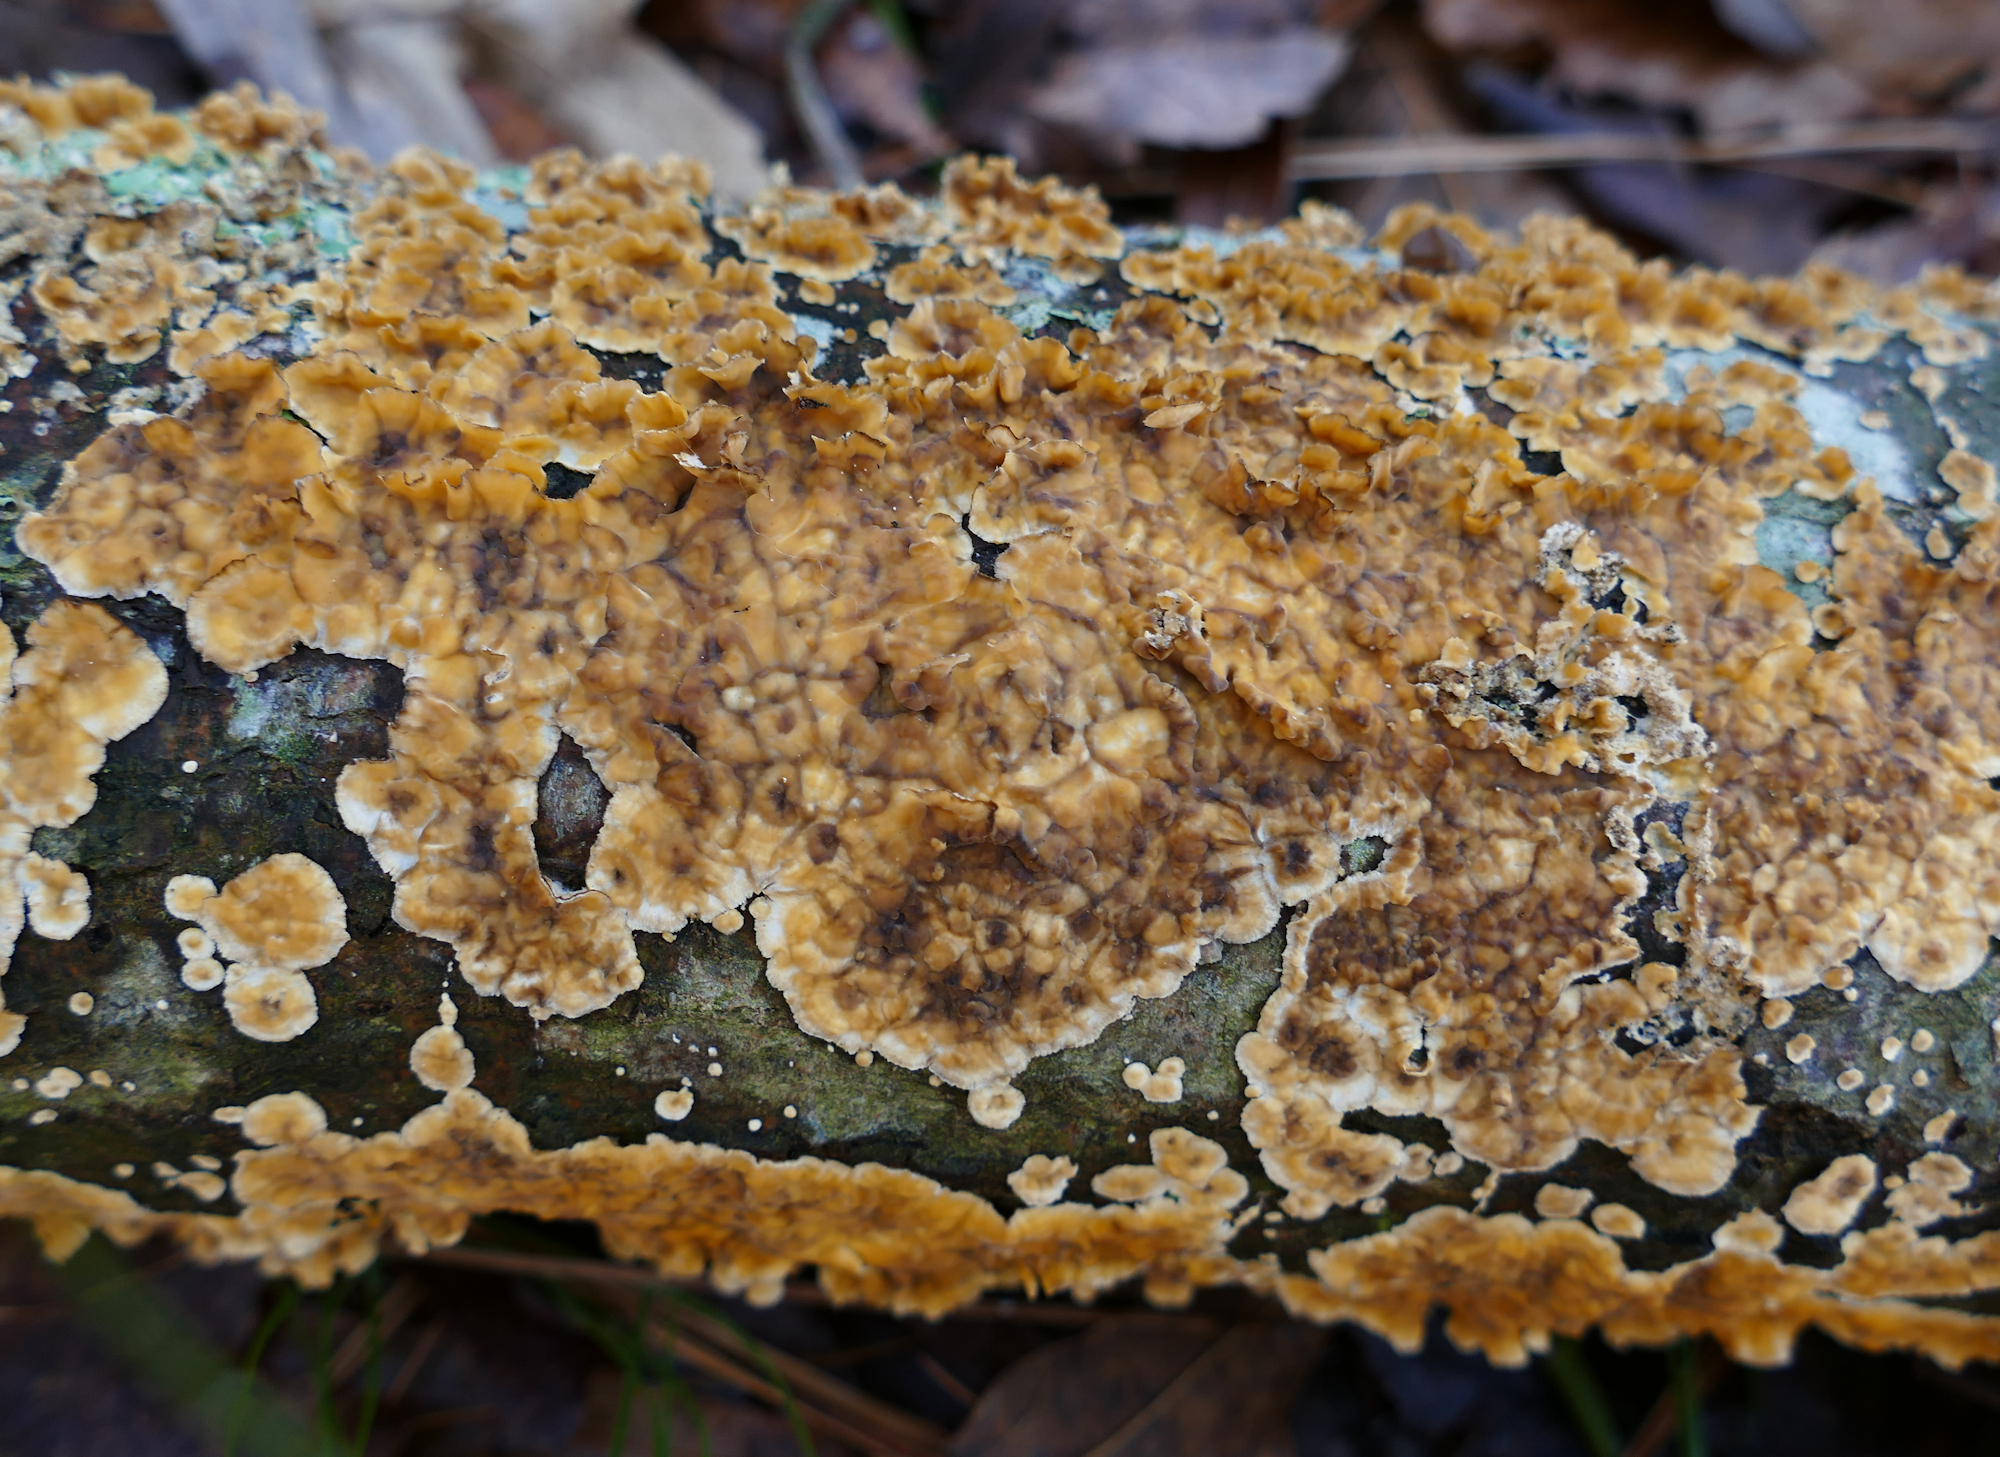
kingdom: Fungi
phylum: Basidiomycota
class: Agaricomycetes
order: Russulales
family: Stereaceae
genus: Stereum
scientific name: Stereum complicatum
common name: Crowded parchment
